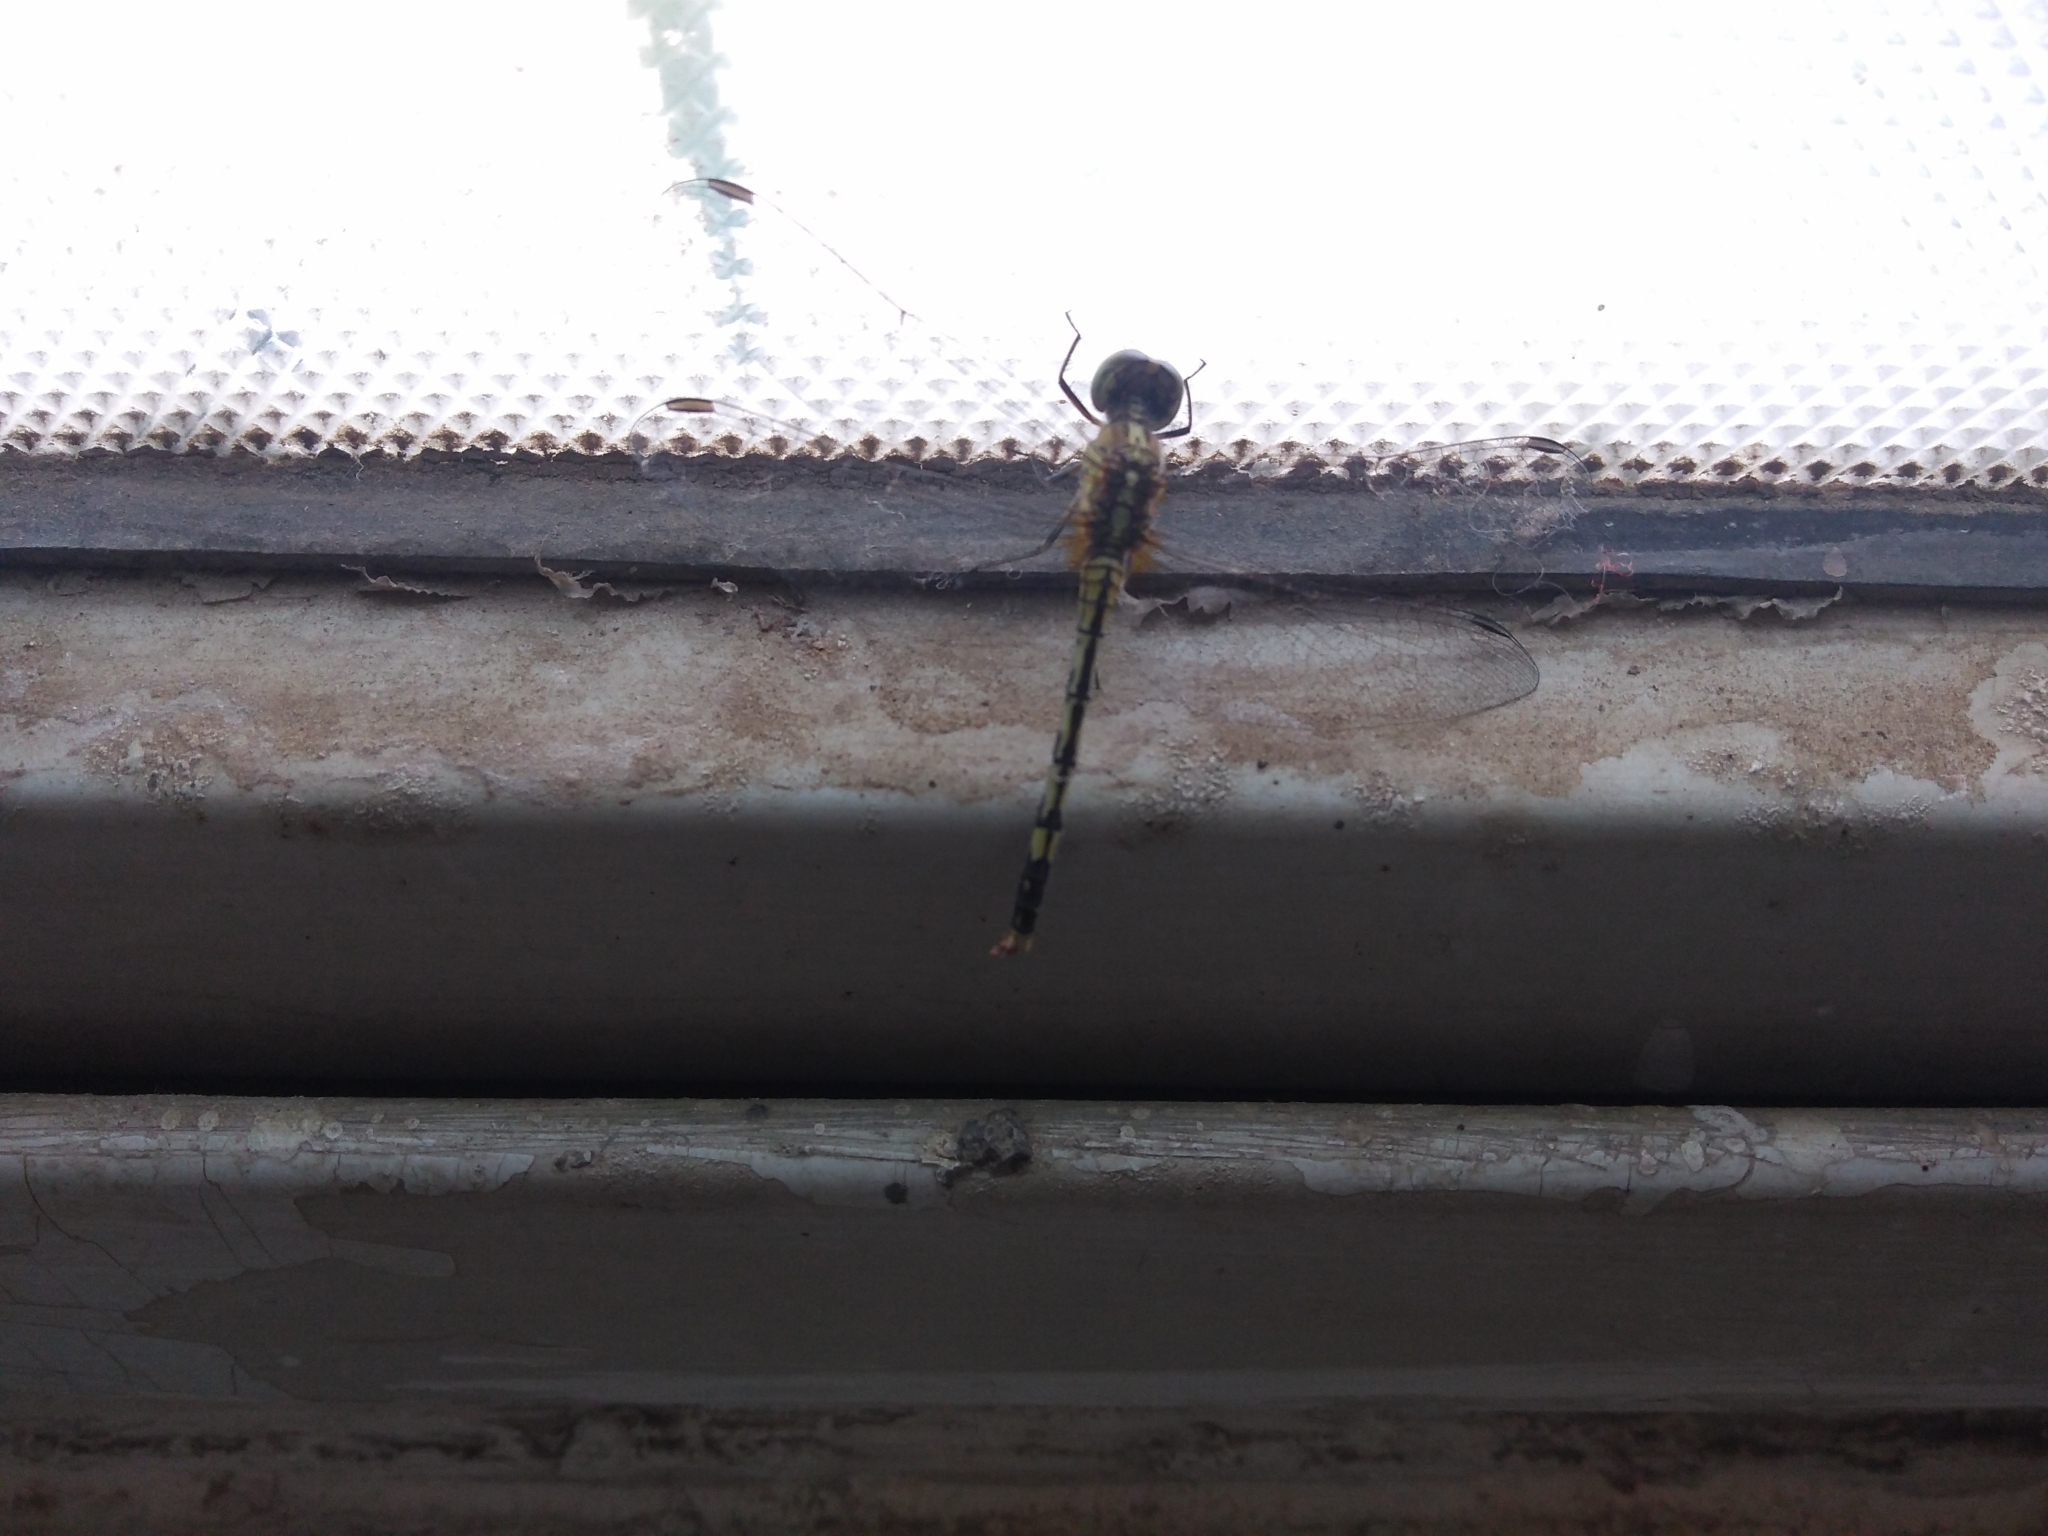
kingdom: Animalia
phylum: Arthropoda
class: Insecta
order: Odonata
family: Libellulidae
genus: Diplacodes
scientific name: Diplacodes trivialis
